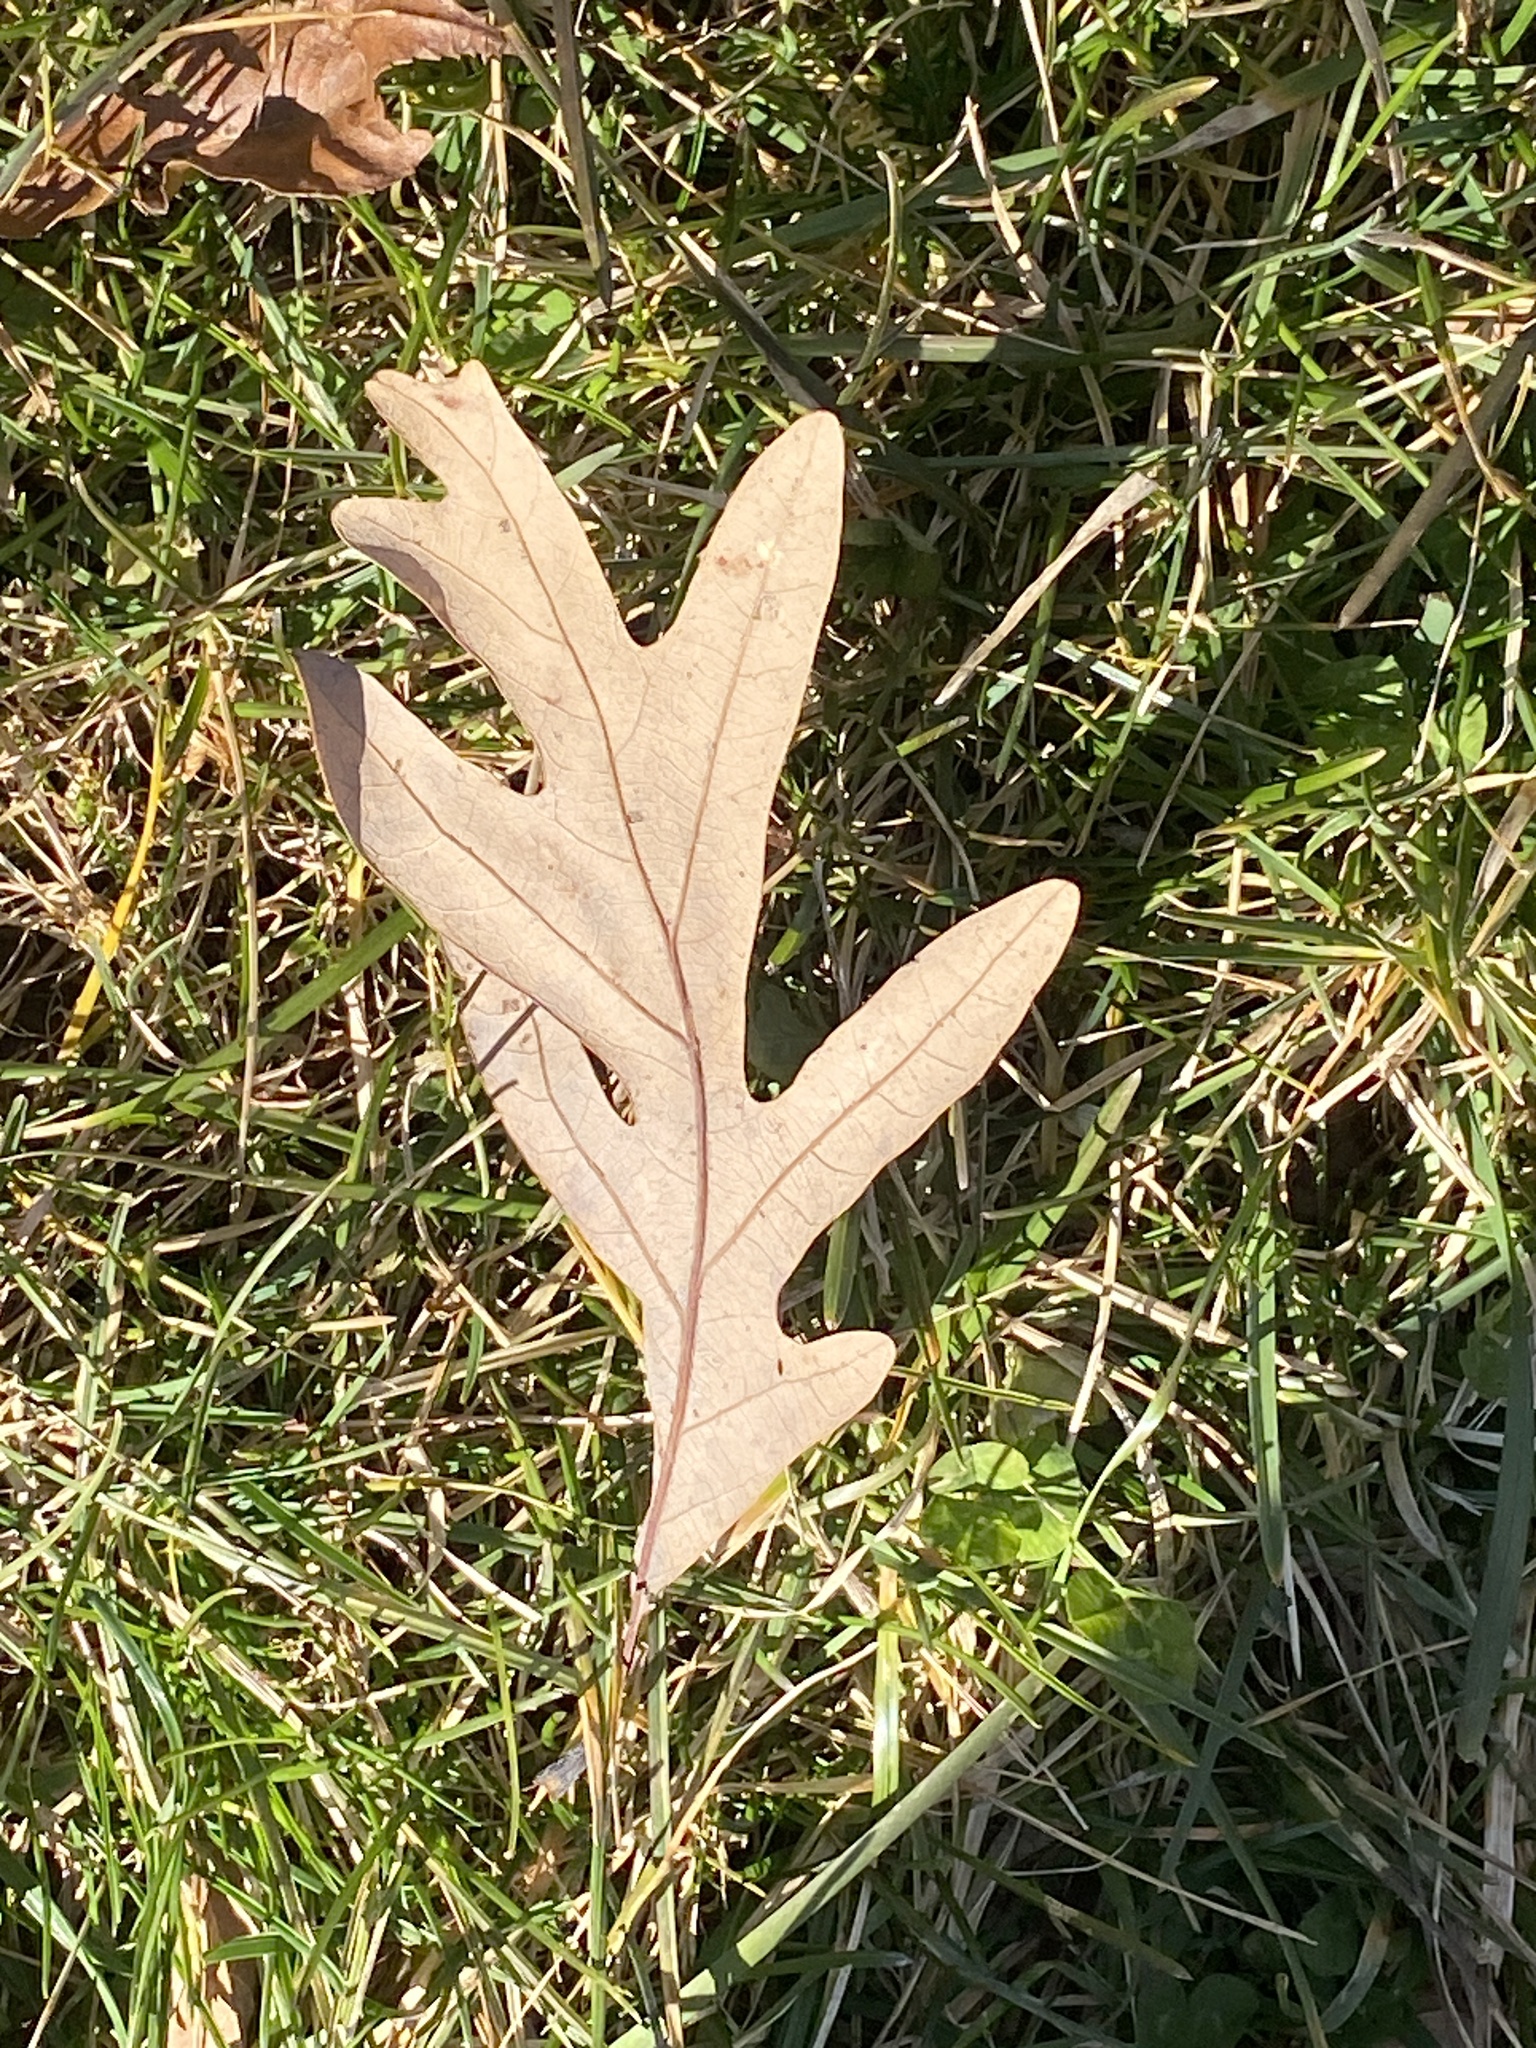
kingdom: Plantae
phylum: Tracheophyta
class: Magnoliopsida
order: Fagales
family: Fagaceae
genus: Quercus
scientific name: Quercus alba
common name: White oak
